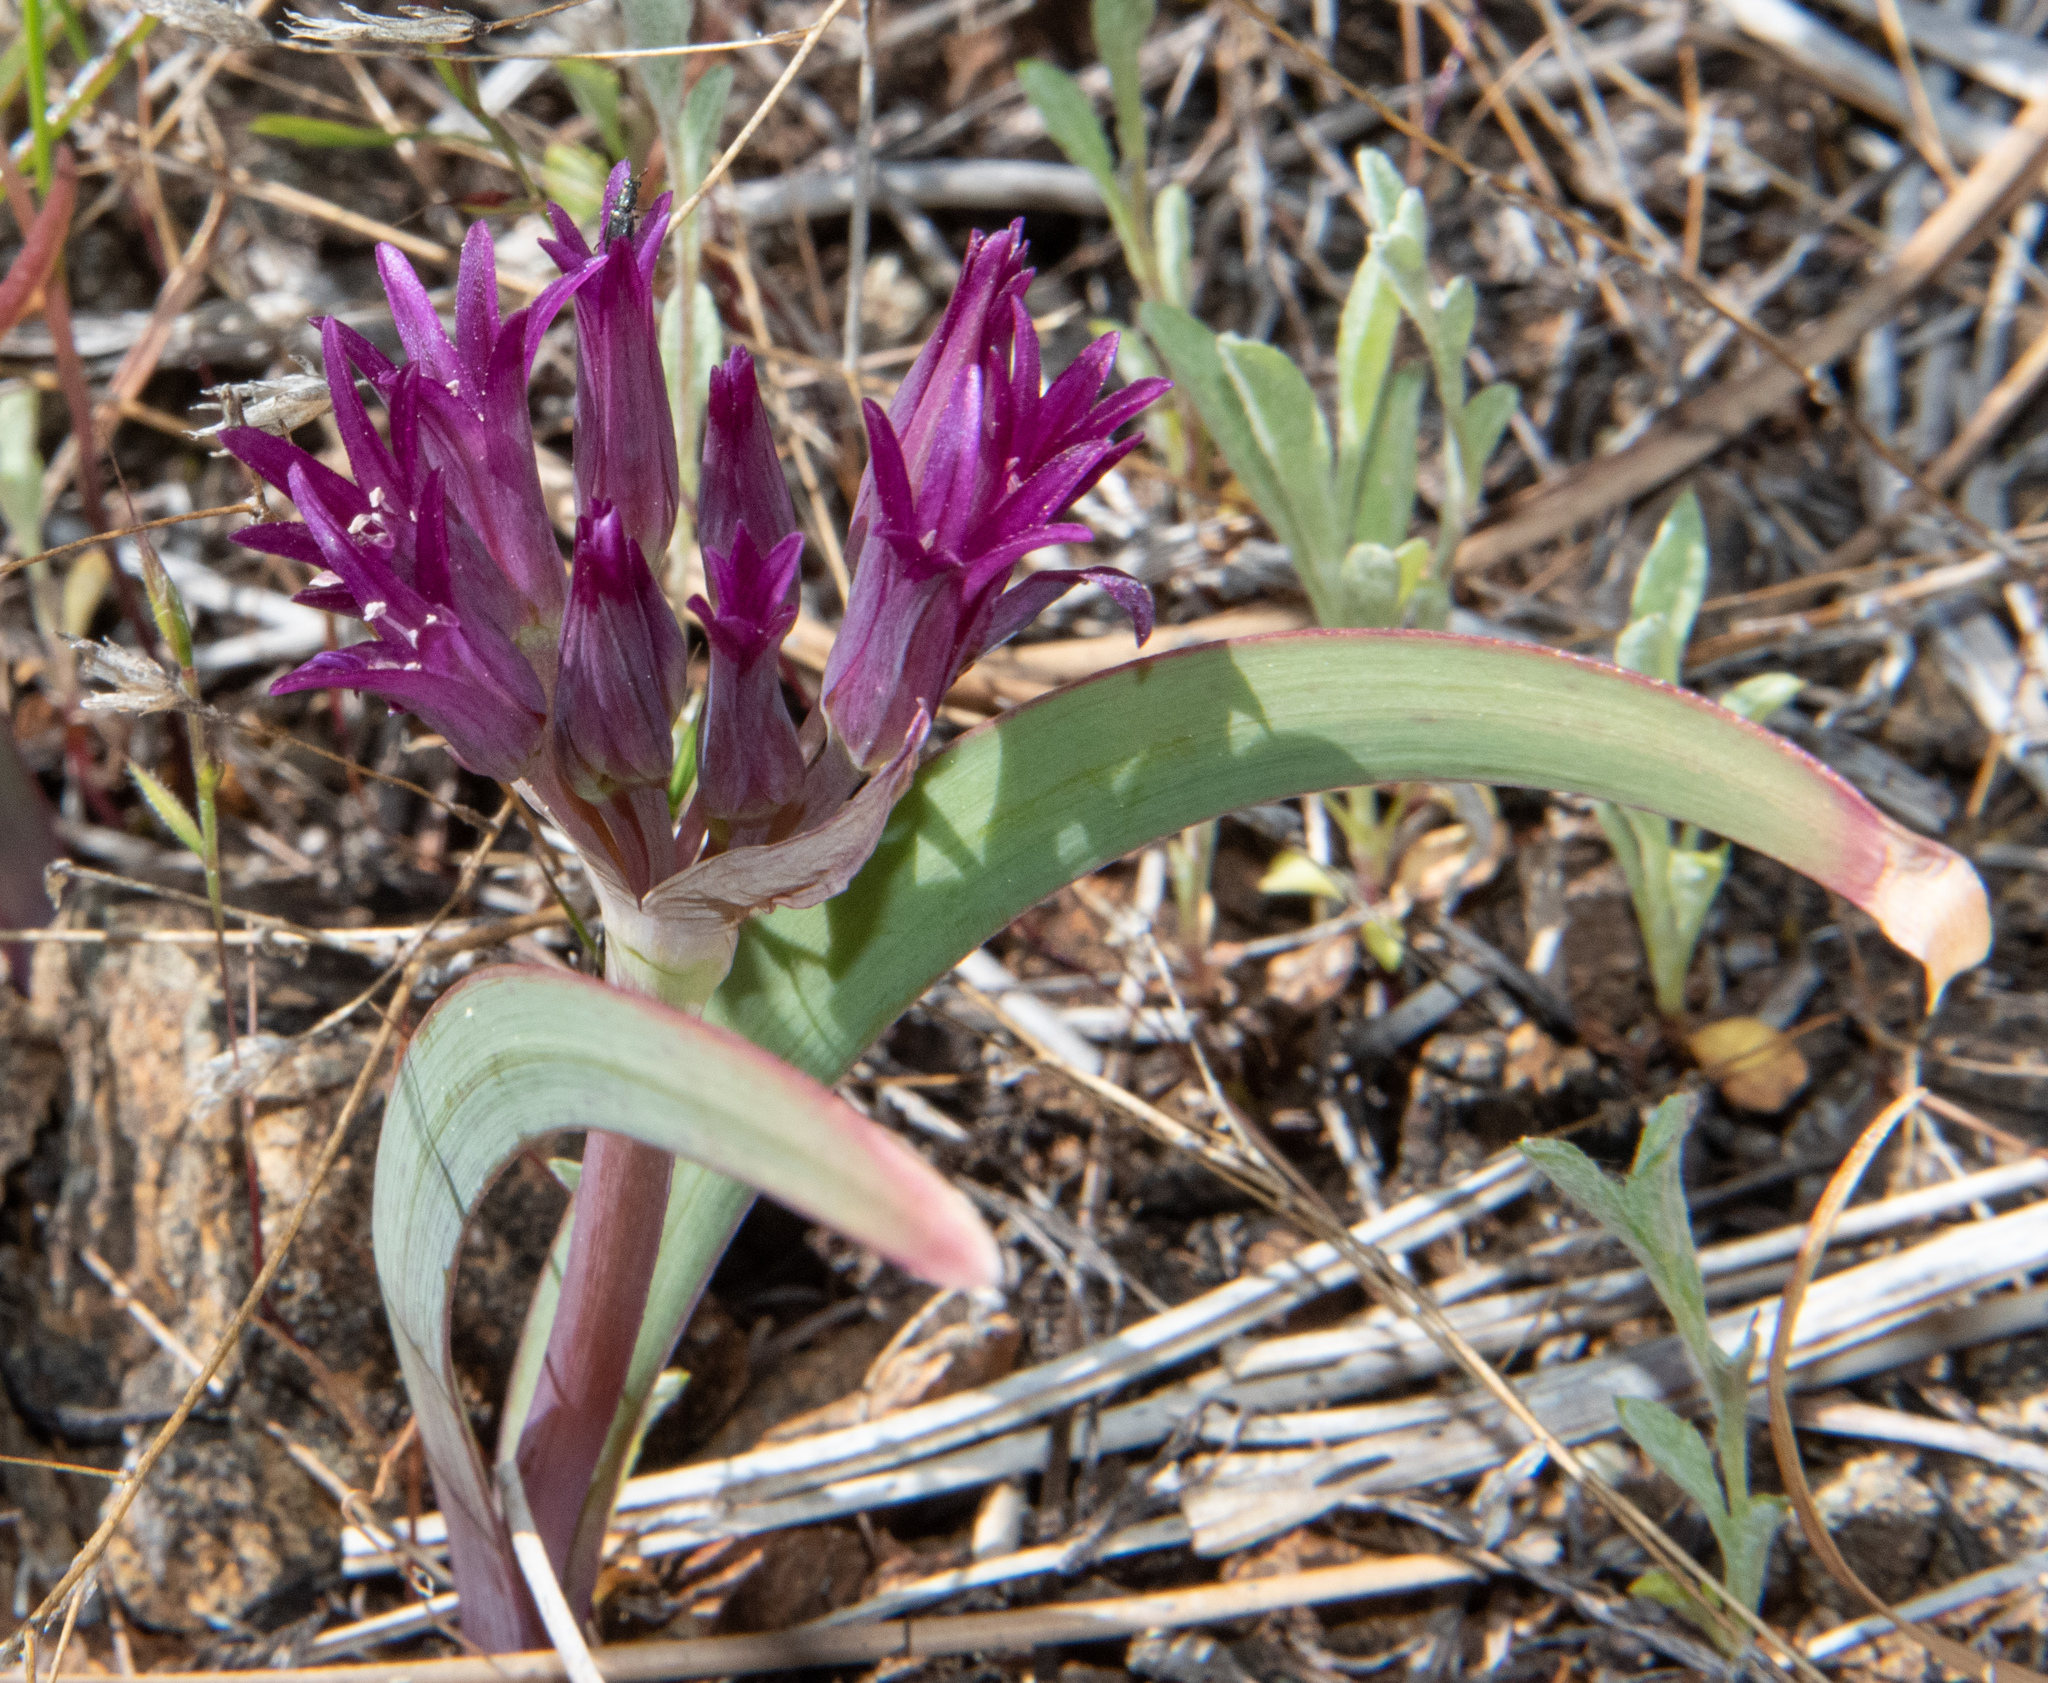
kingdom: Plantae
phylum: Tracheophyta
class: Liliopsida
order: Asparagales
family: Amaryllidaceae
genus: Allium
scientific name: Allium falcifolium
